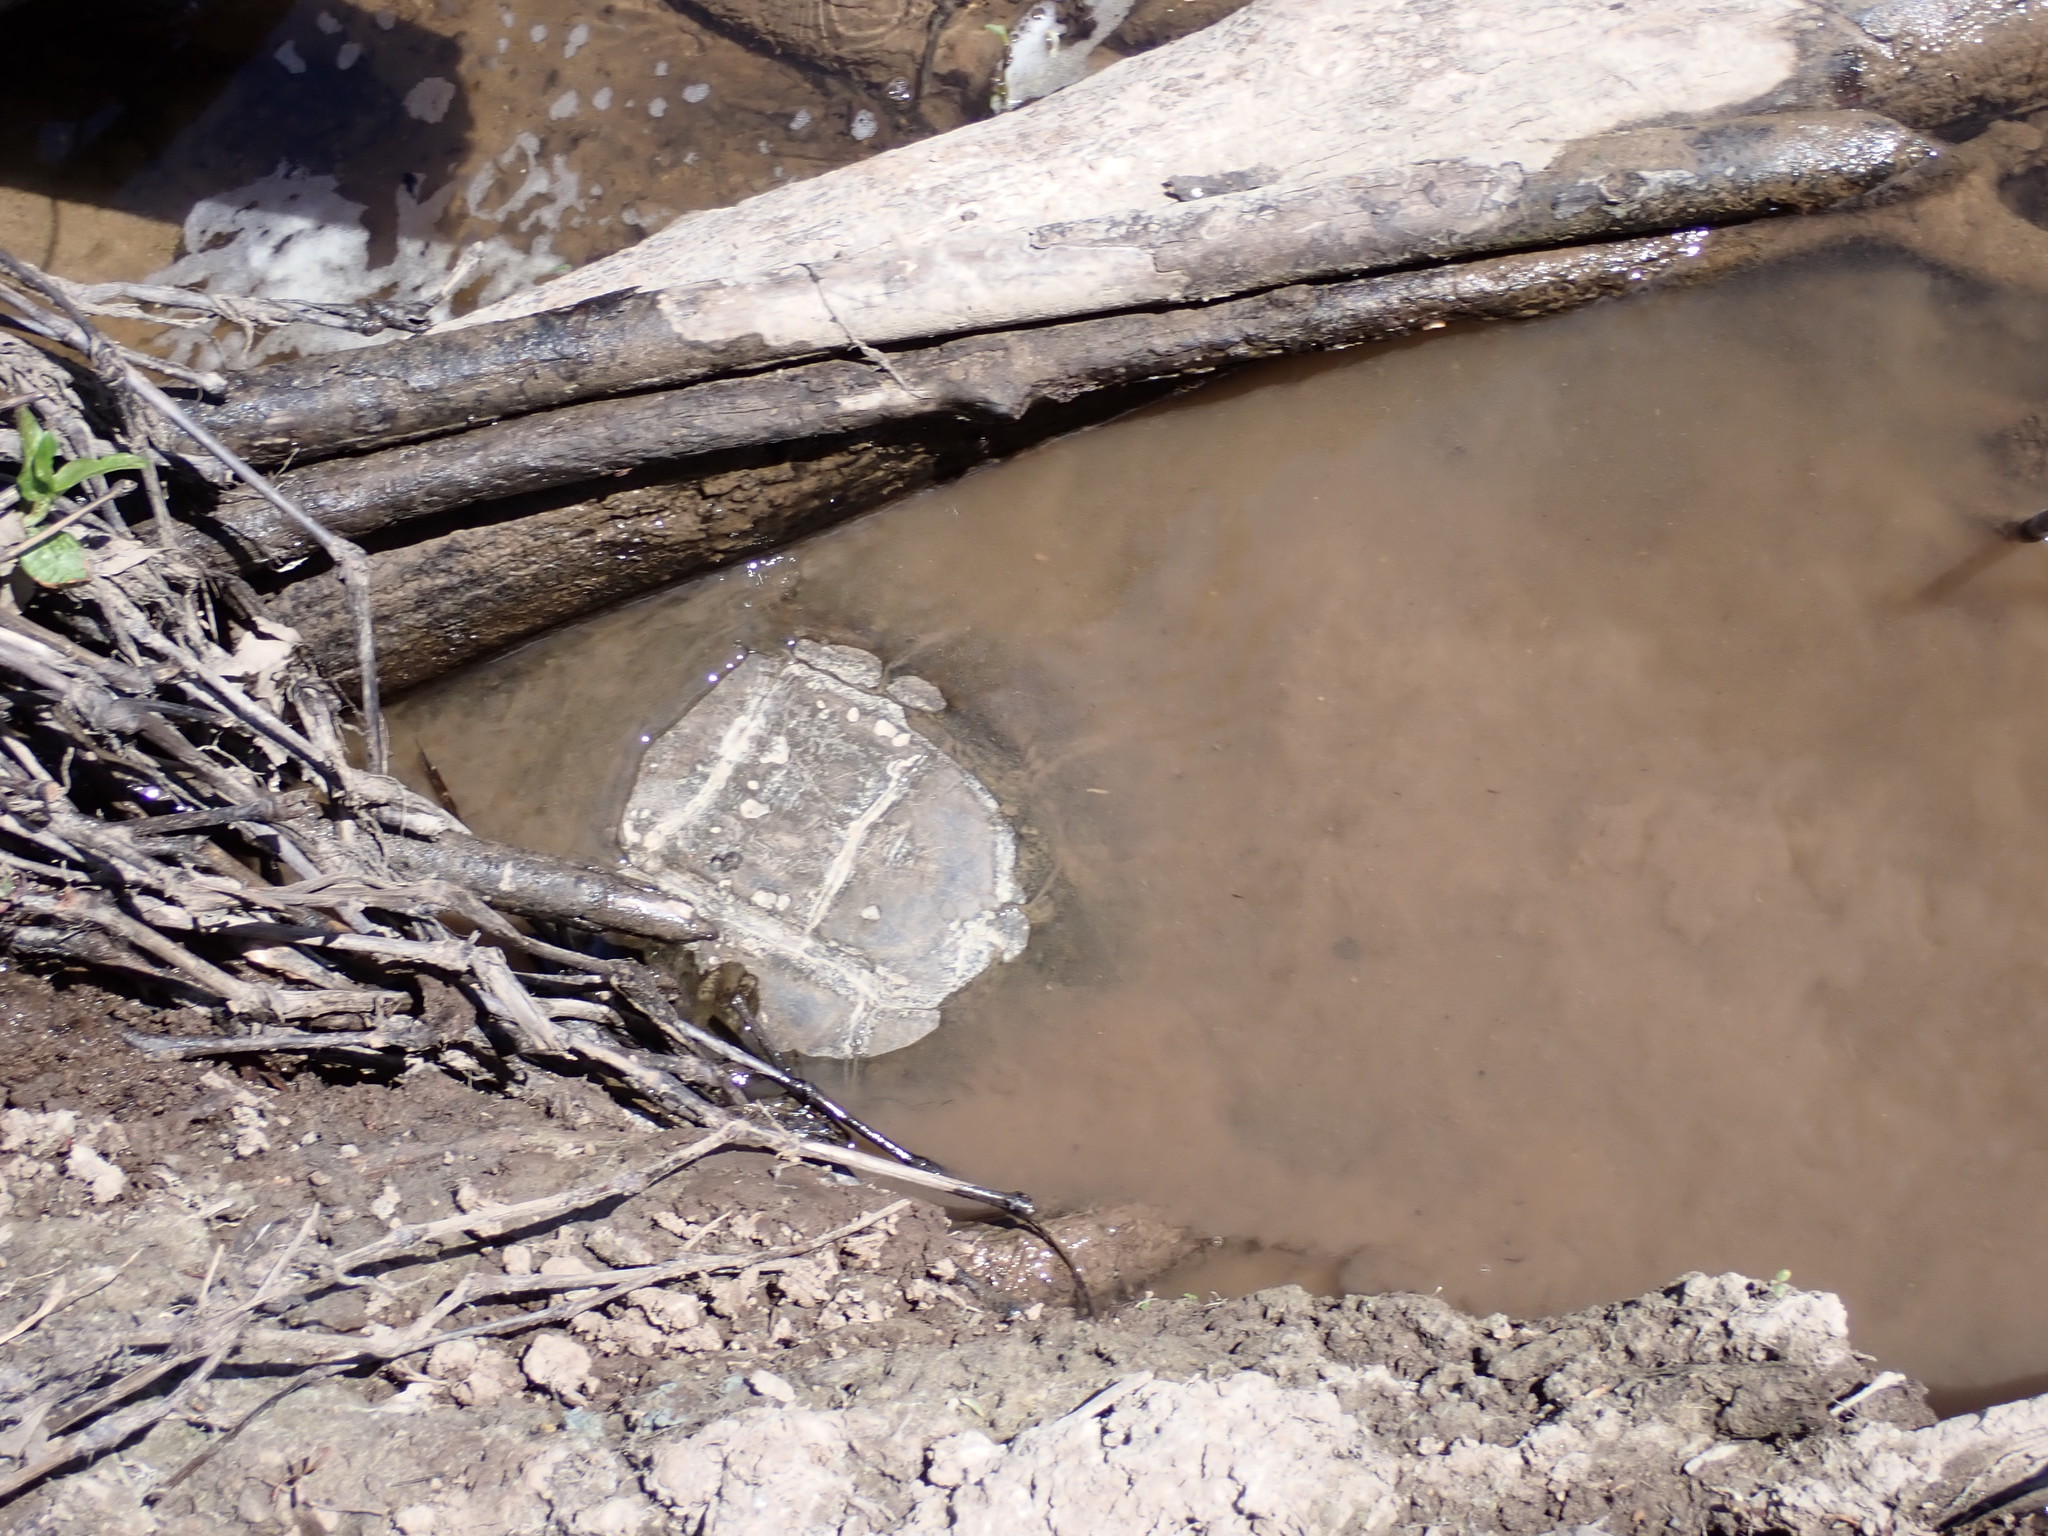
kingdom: Animalia
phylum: Chordata
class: Testudines
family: Chelydridae
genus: Chelydra
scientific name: Chelydra serpentina
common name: Common snapping turtle
